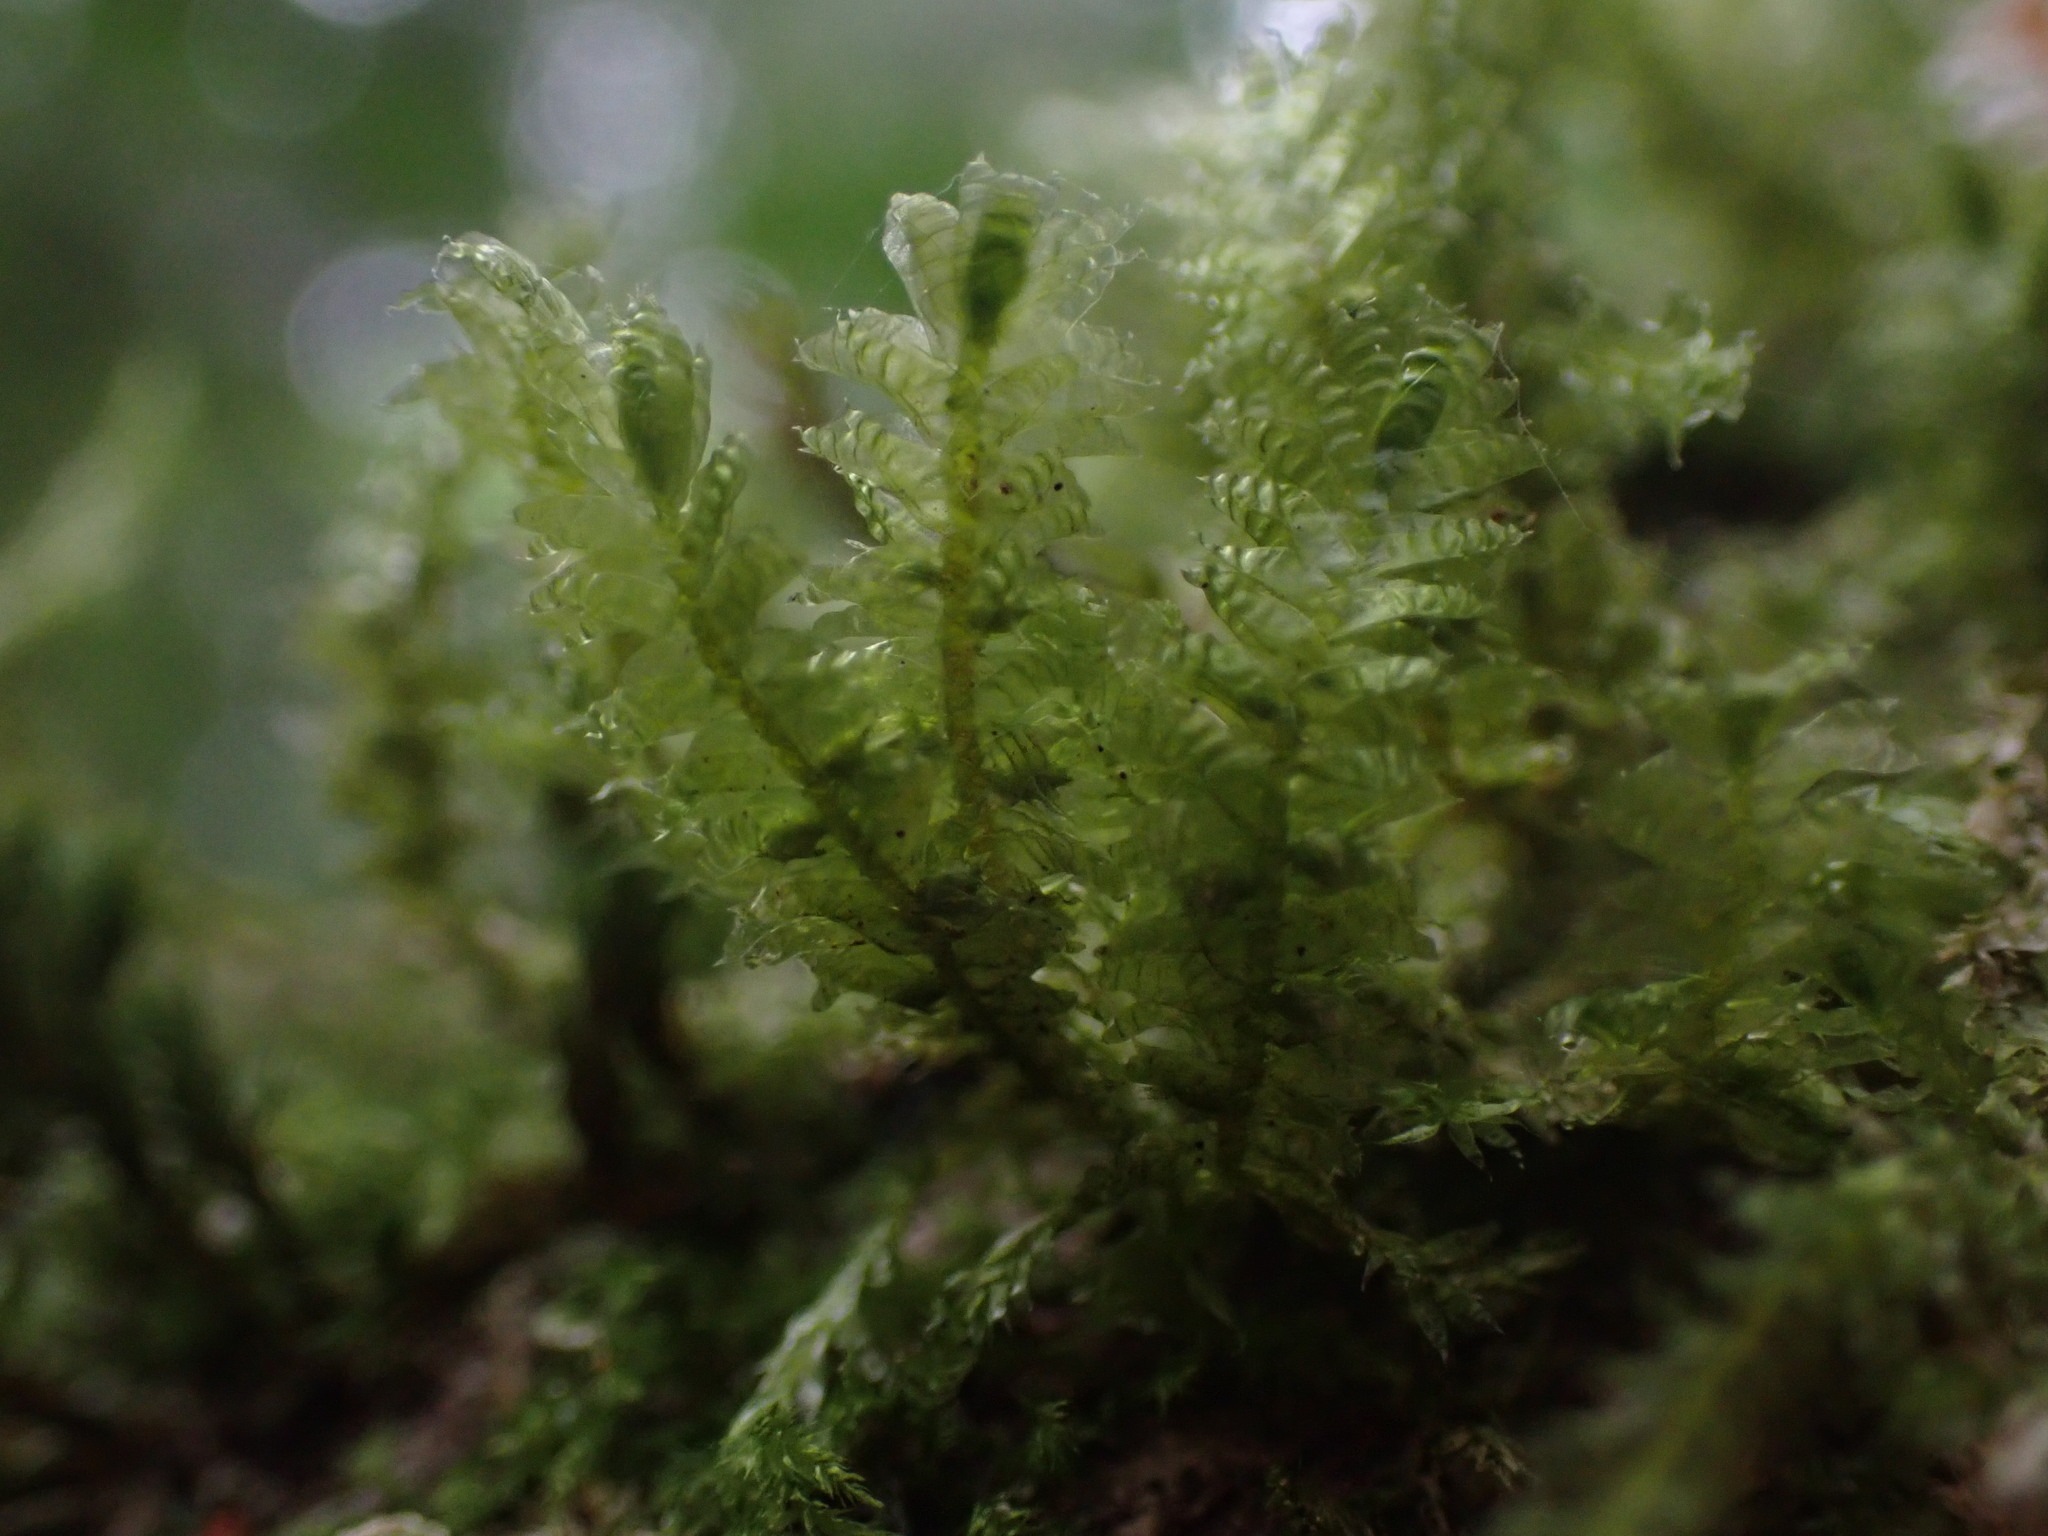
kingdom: Plantae
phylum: Bryophyta
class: Bryopsida
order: Hypnales
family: Neckeraceae
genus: Neckera
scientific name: Neckera douglasii
